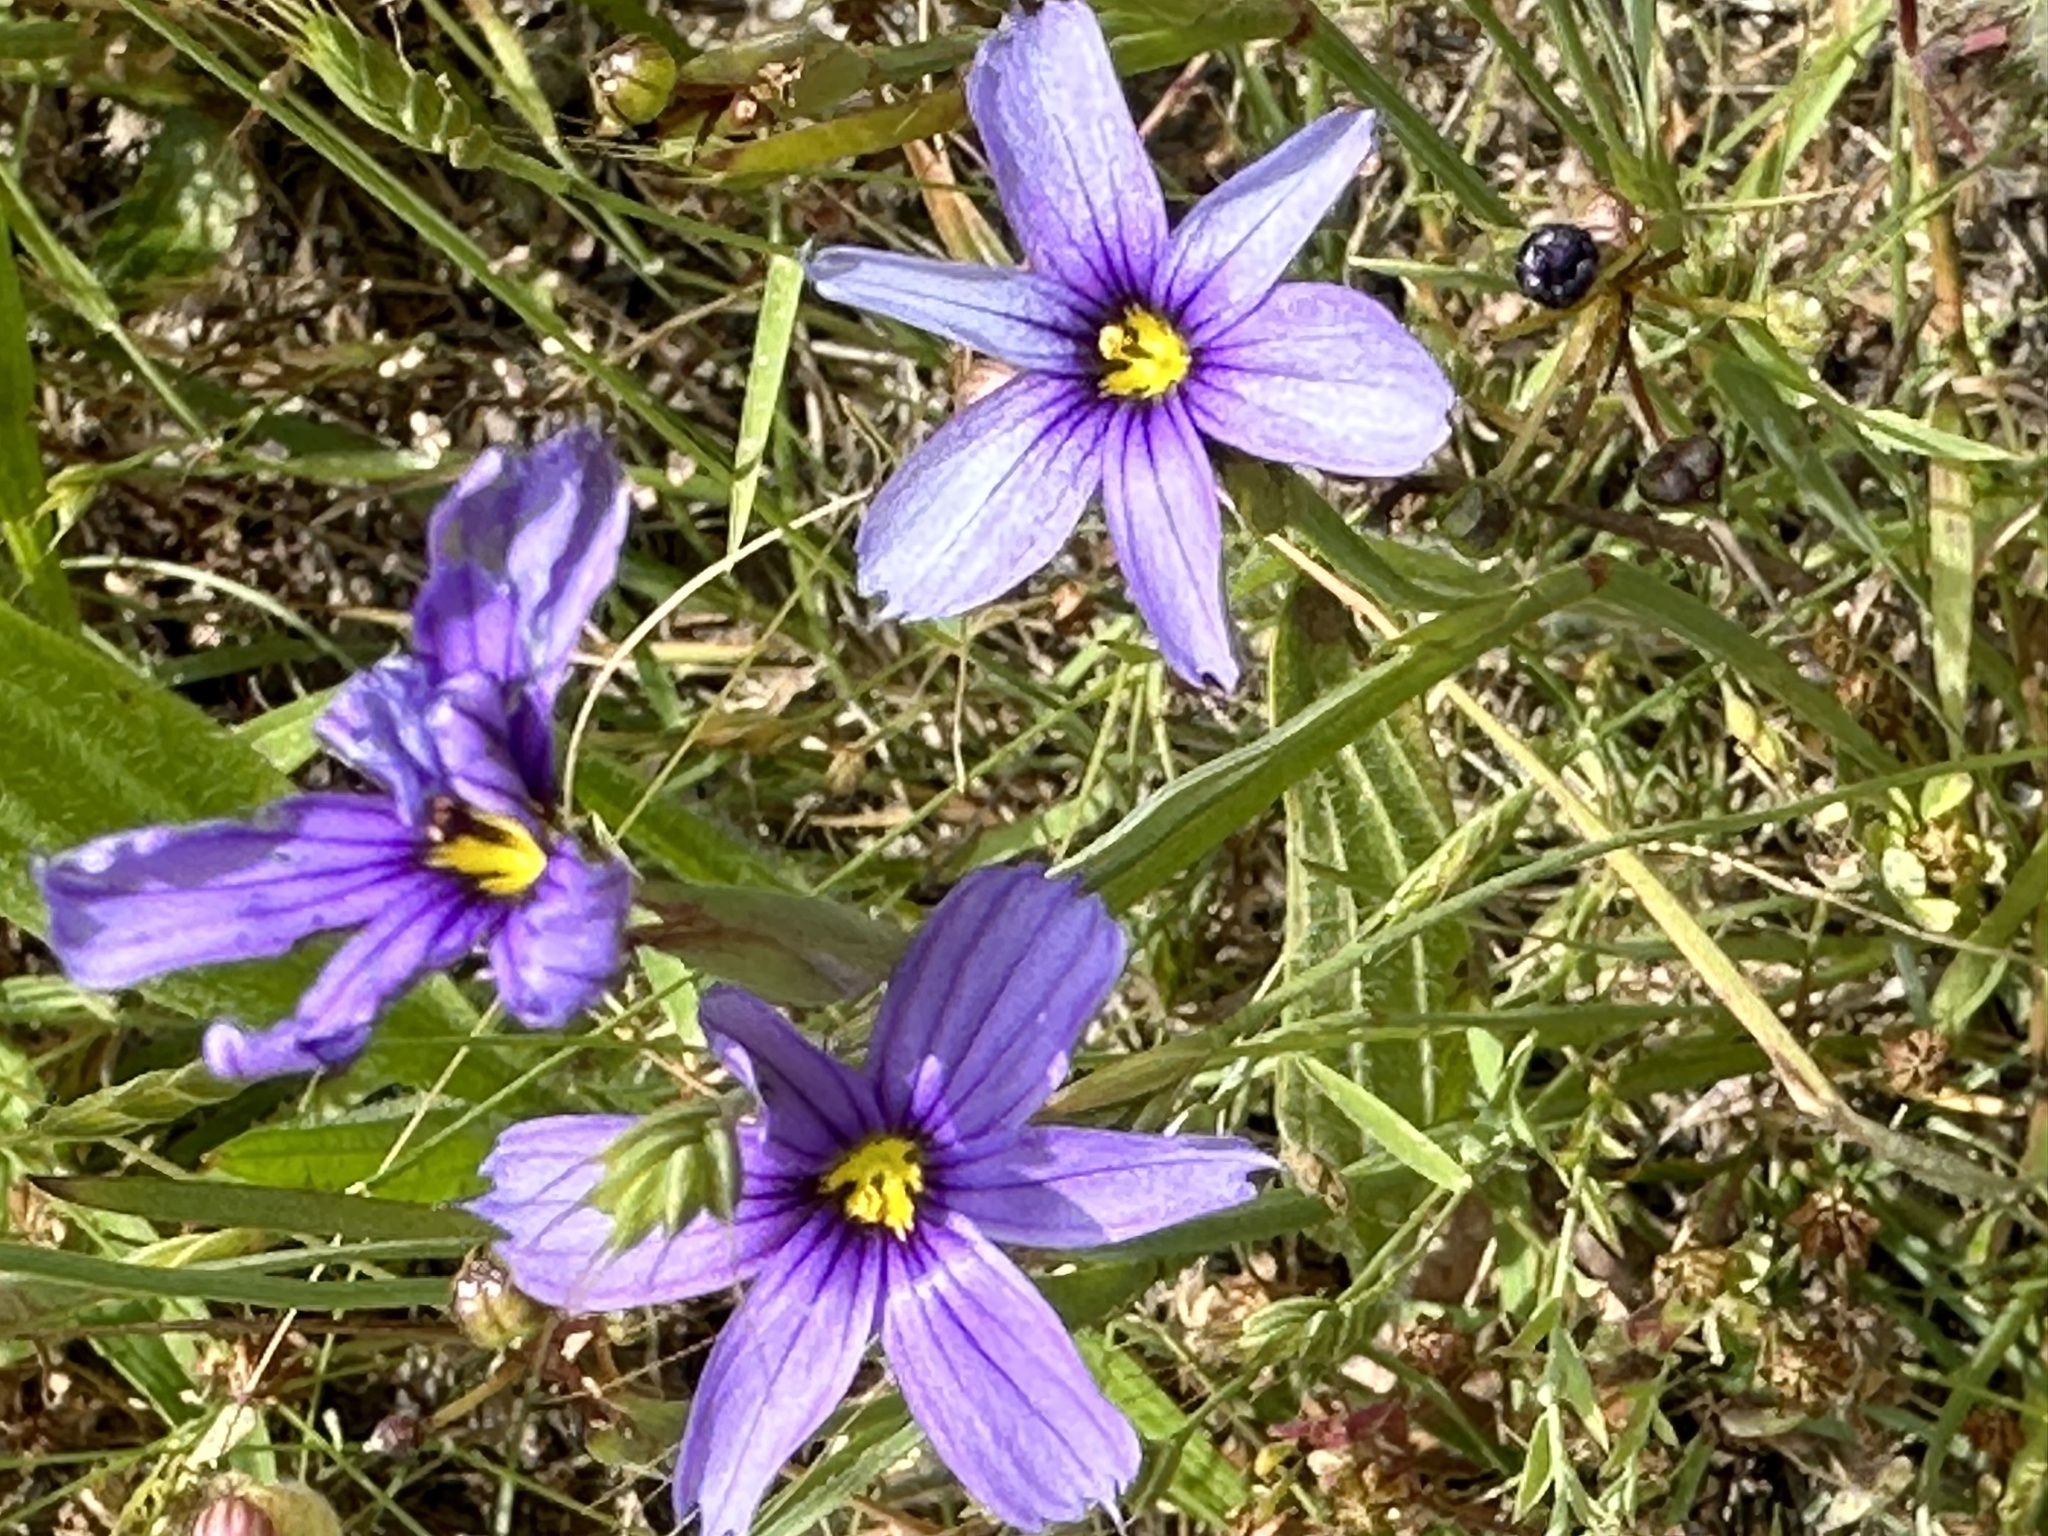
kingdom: Plantae
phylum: Tracheophyta
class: Liliopsida
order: Asparagales
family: Iridaceae
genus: Sisyrinchium
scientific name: Sisyrinchium bellum
